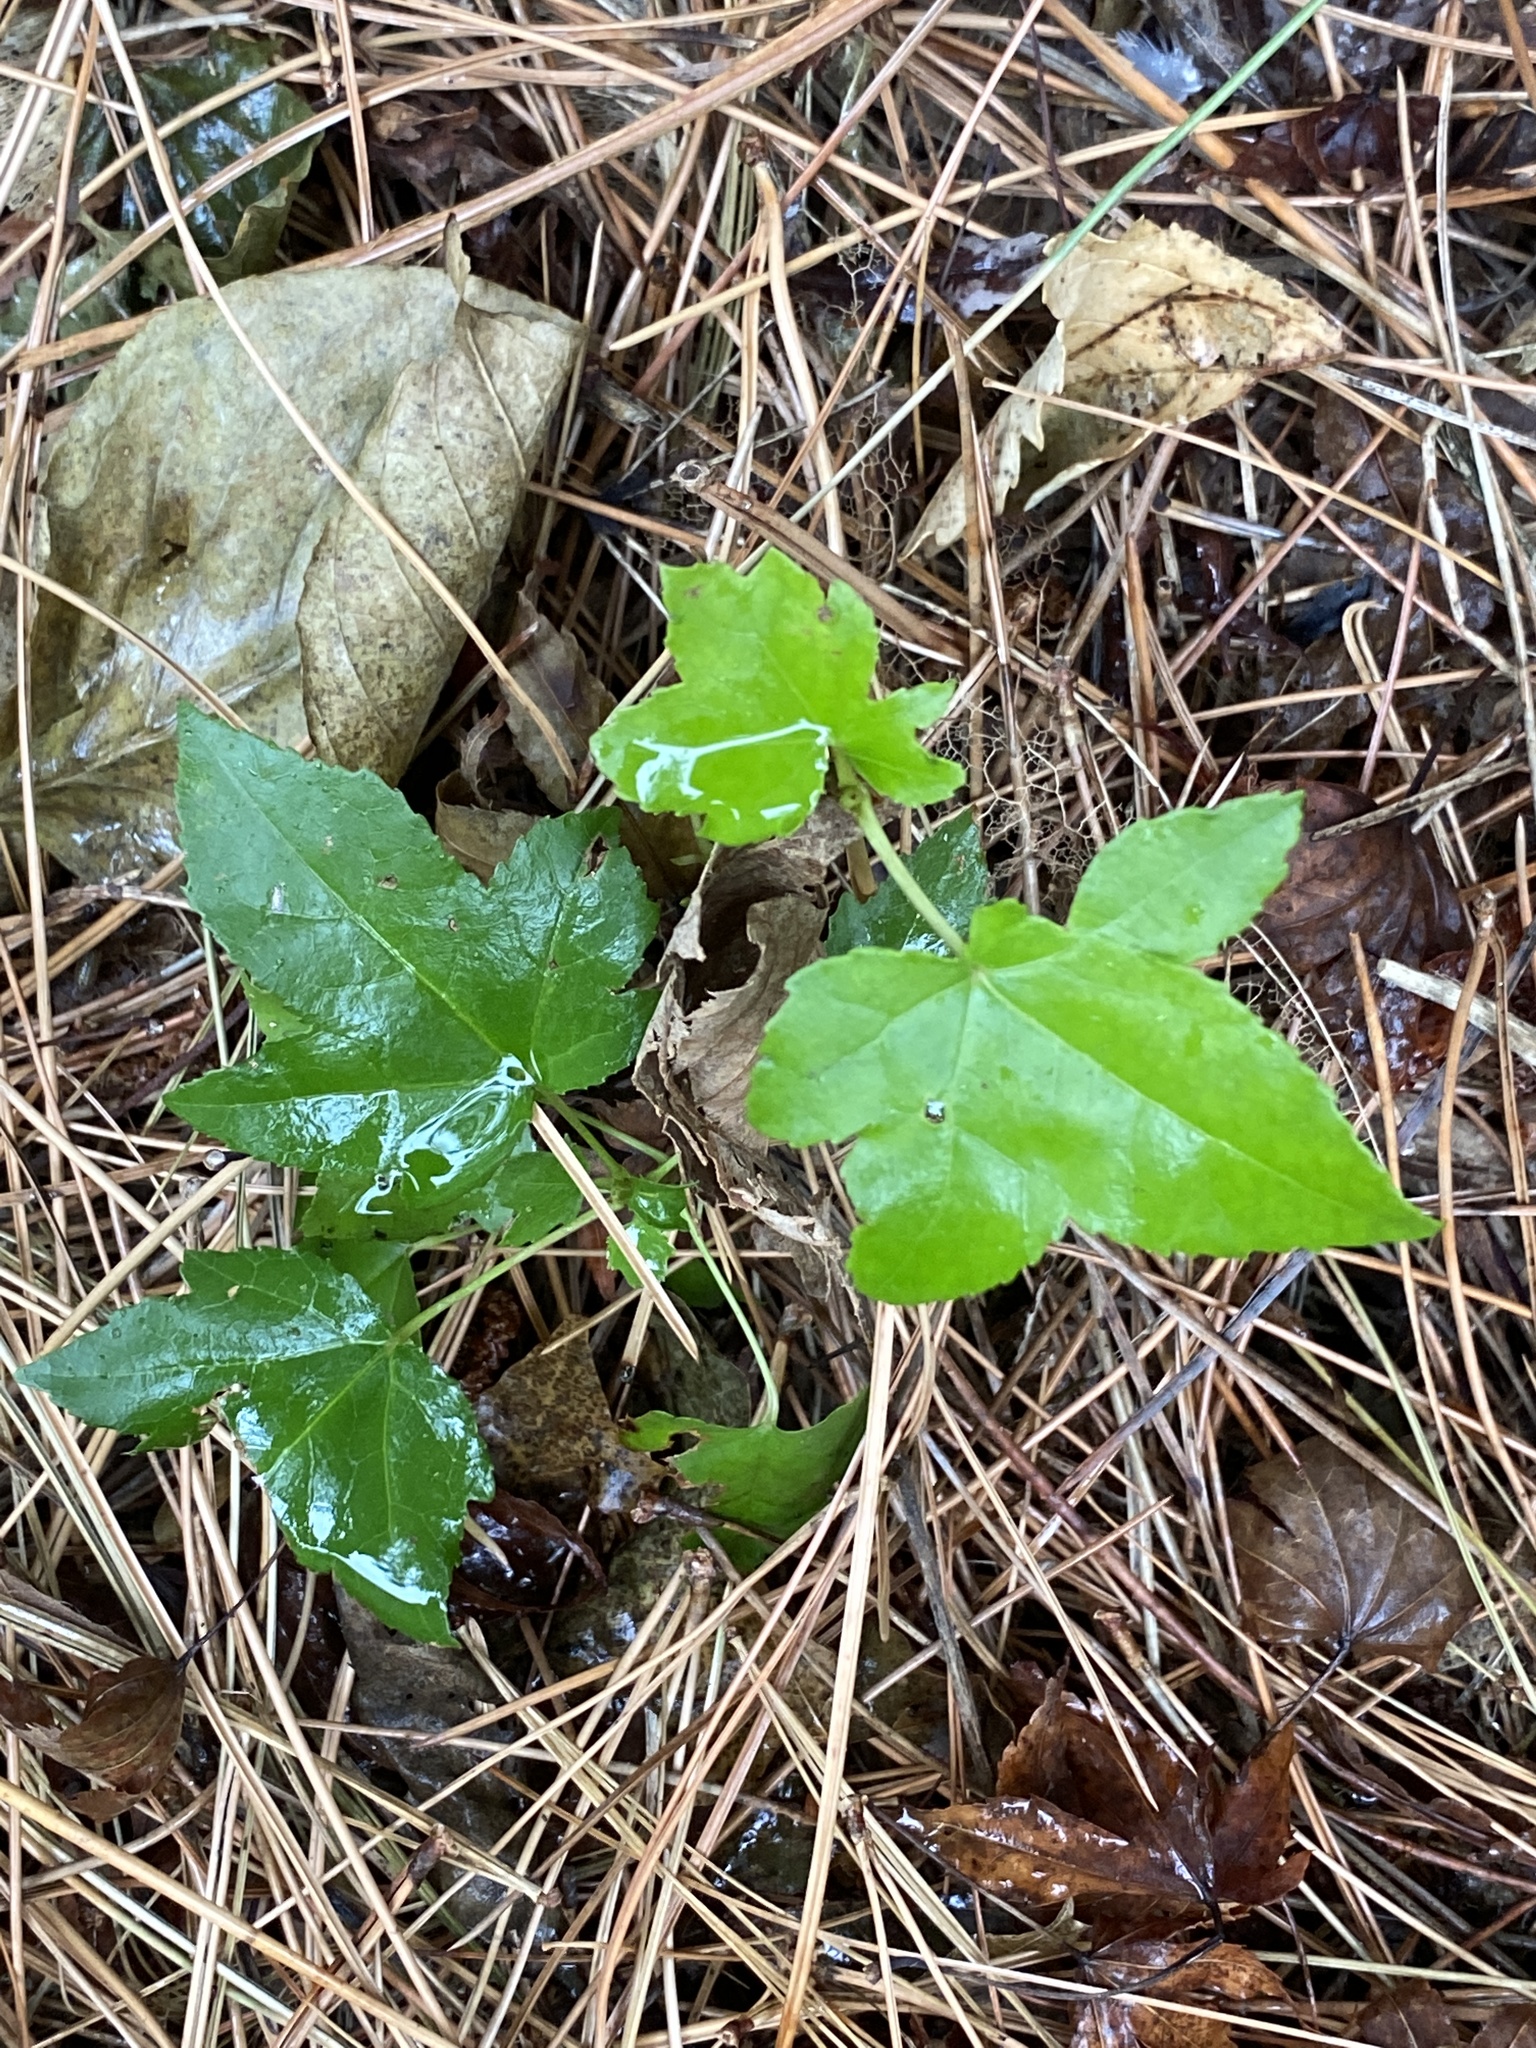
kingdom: Plantae
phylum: Tracheophyta
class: Magnoliopsida
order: Saxifragales
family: Altingiaceae
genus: Liquidambar
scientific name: Liquidambar styraciflua
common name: Sweet gum
